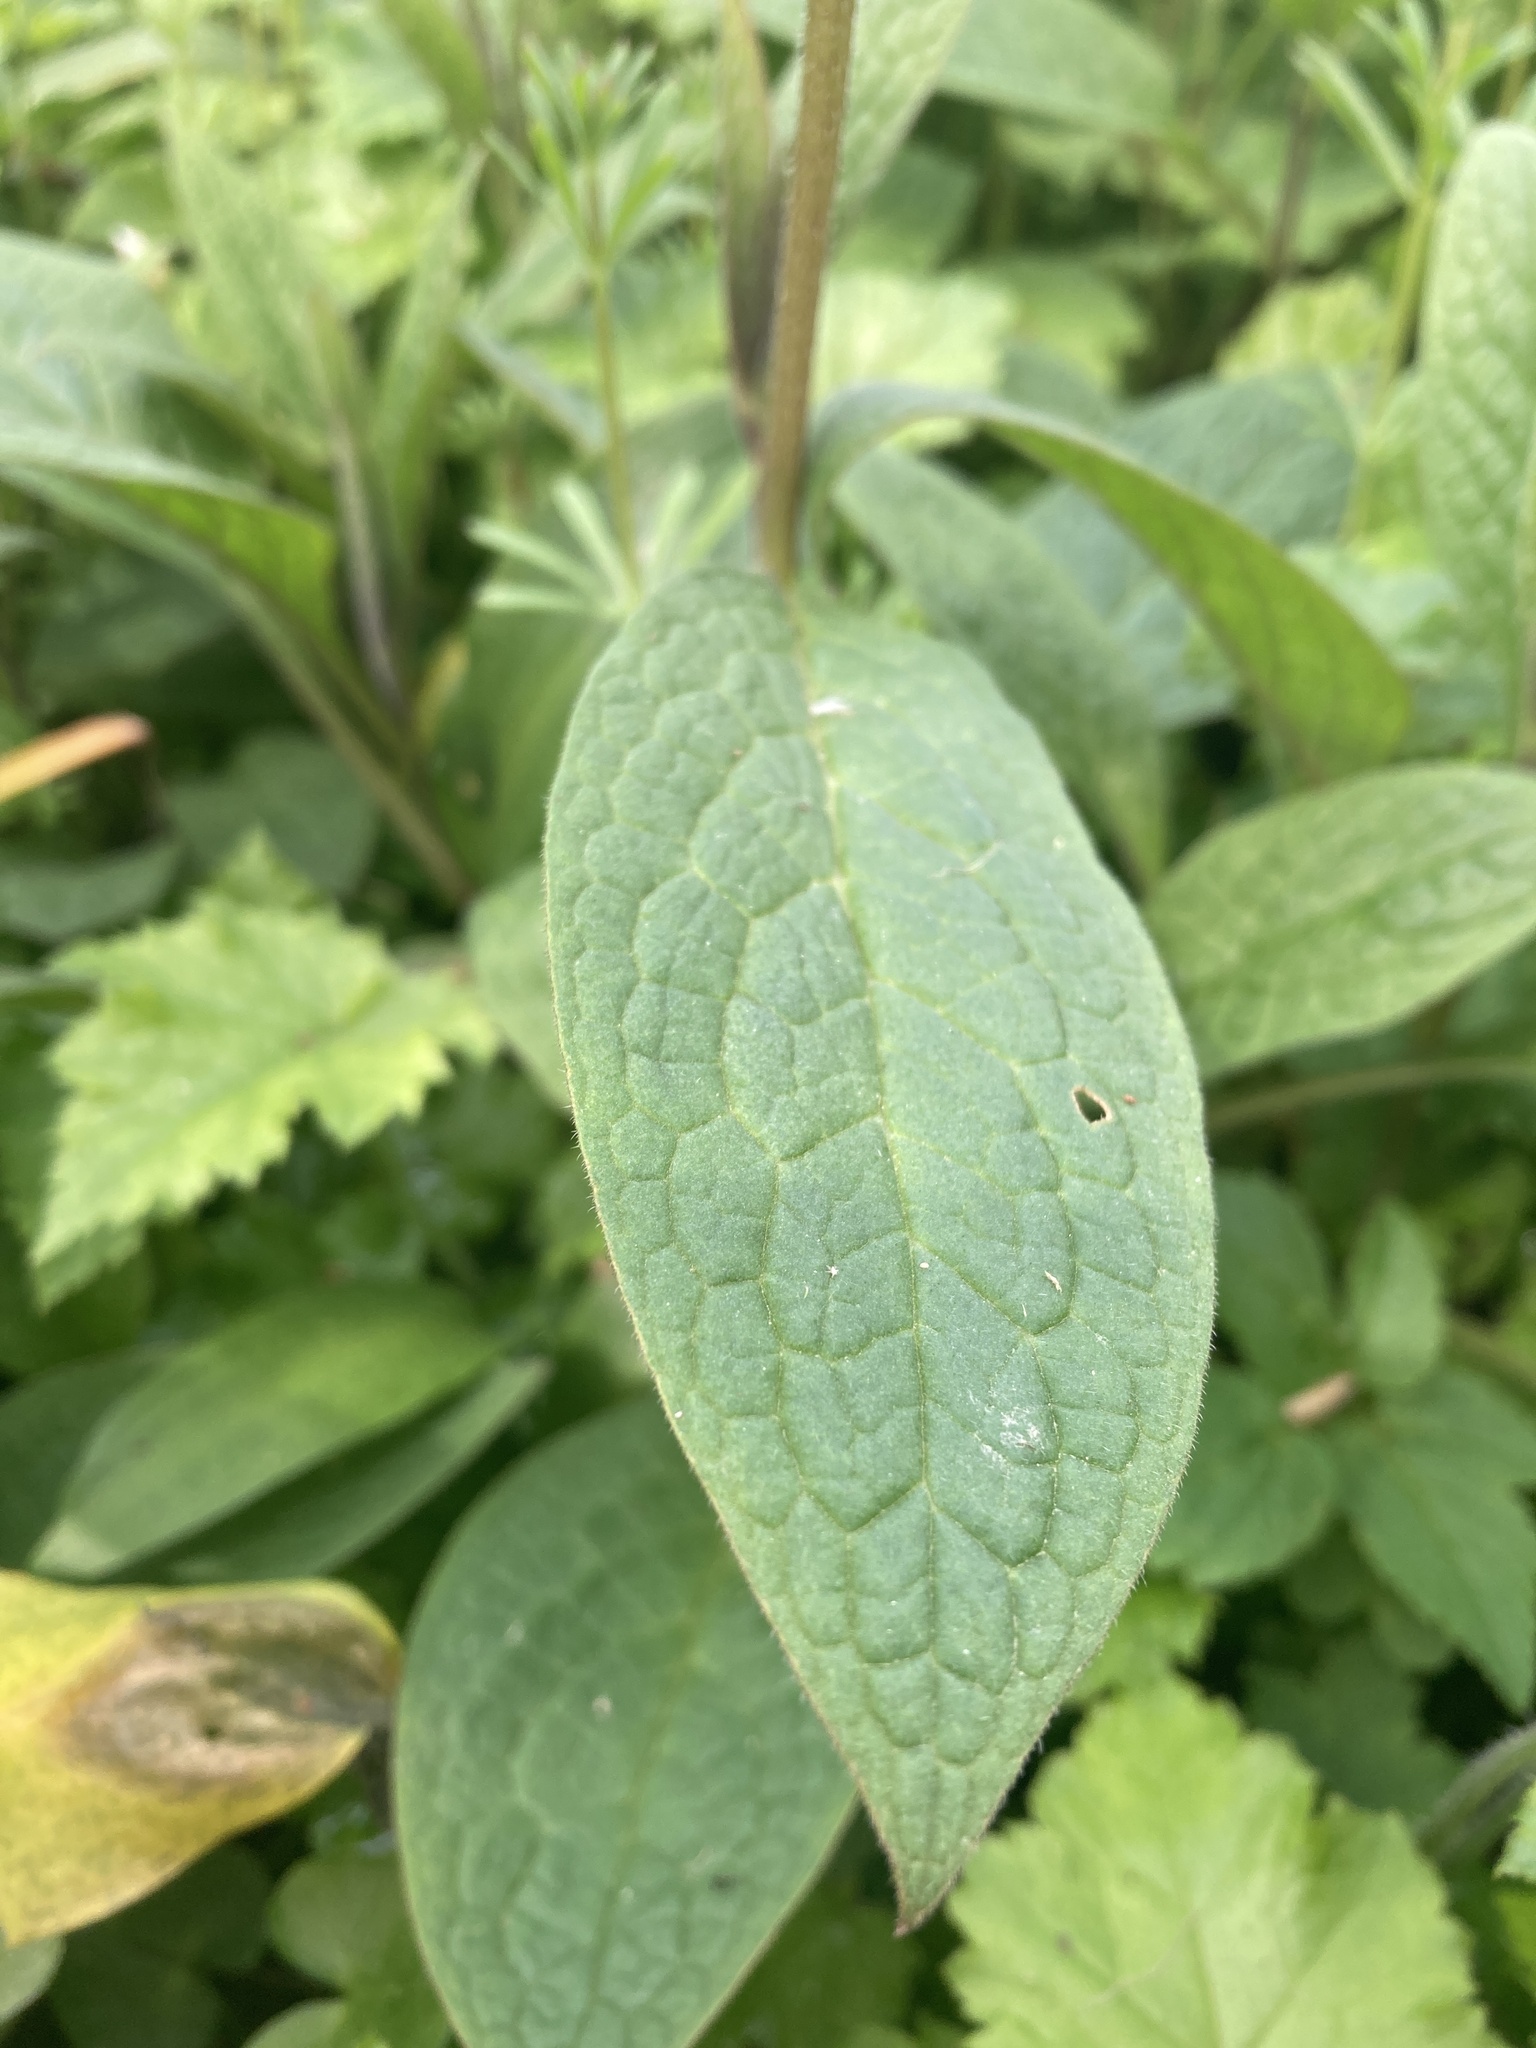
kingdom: Plantae
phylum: Tracheophyta
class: Magnoliopsida
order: Boraginales
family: Boraginaceae
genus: Symphytum
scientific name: Symphytum tuberosum
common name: Tuberous comfrey
